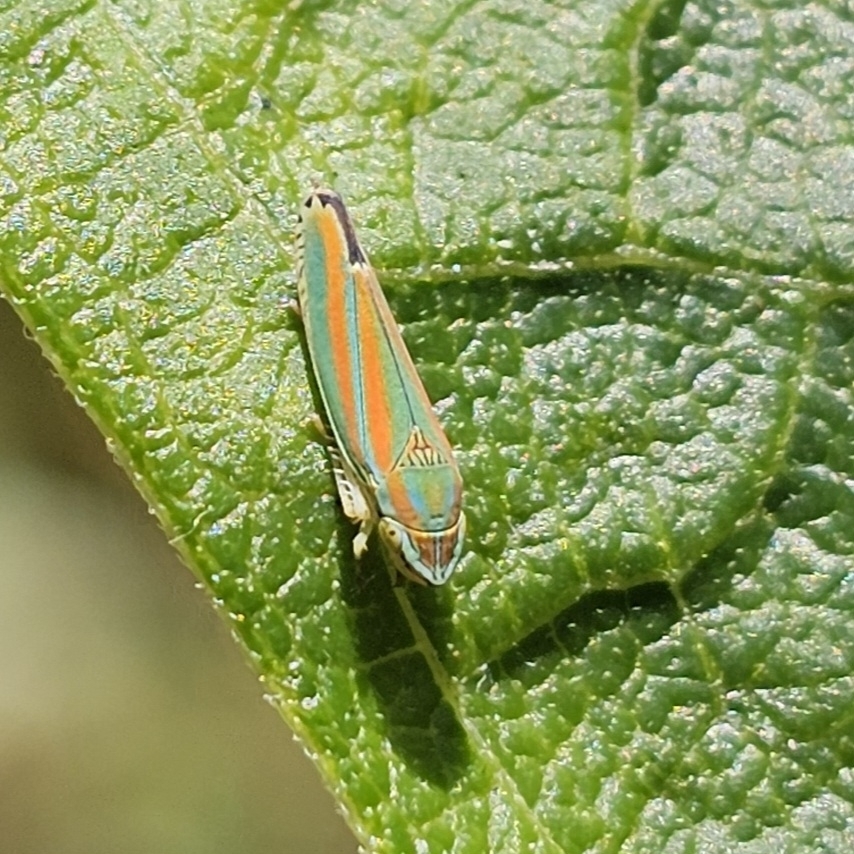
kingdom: Animalia
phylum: Arthropoda
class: Insecta
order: Hemiptera
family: Cicadellidae
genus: Graphocephala
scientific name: Graphocephala versuta
